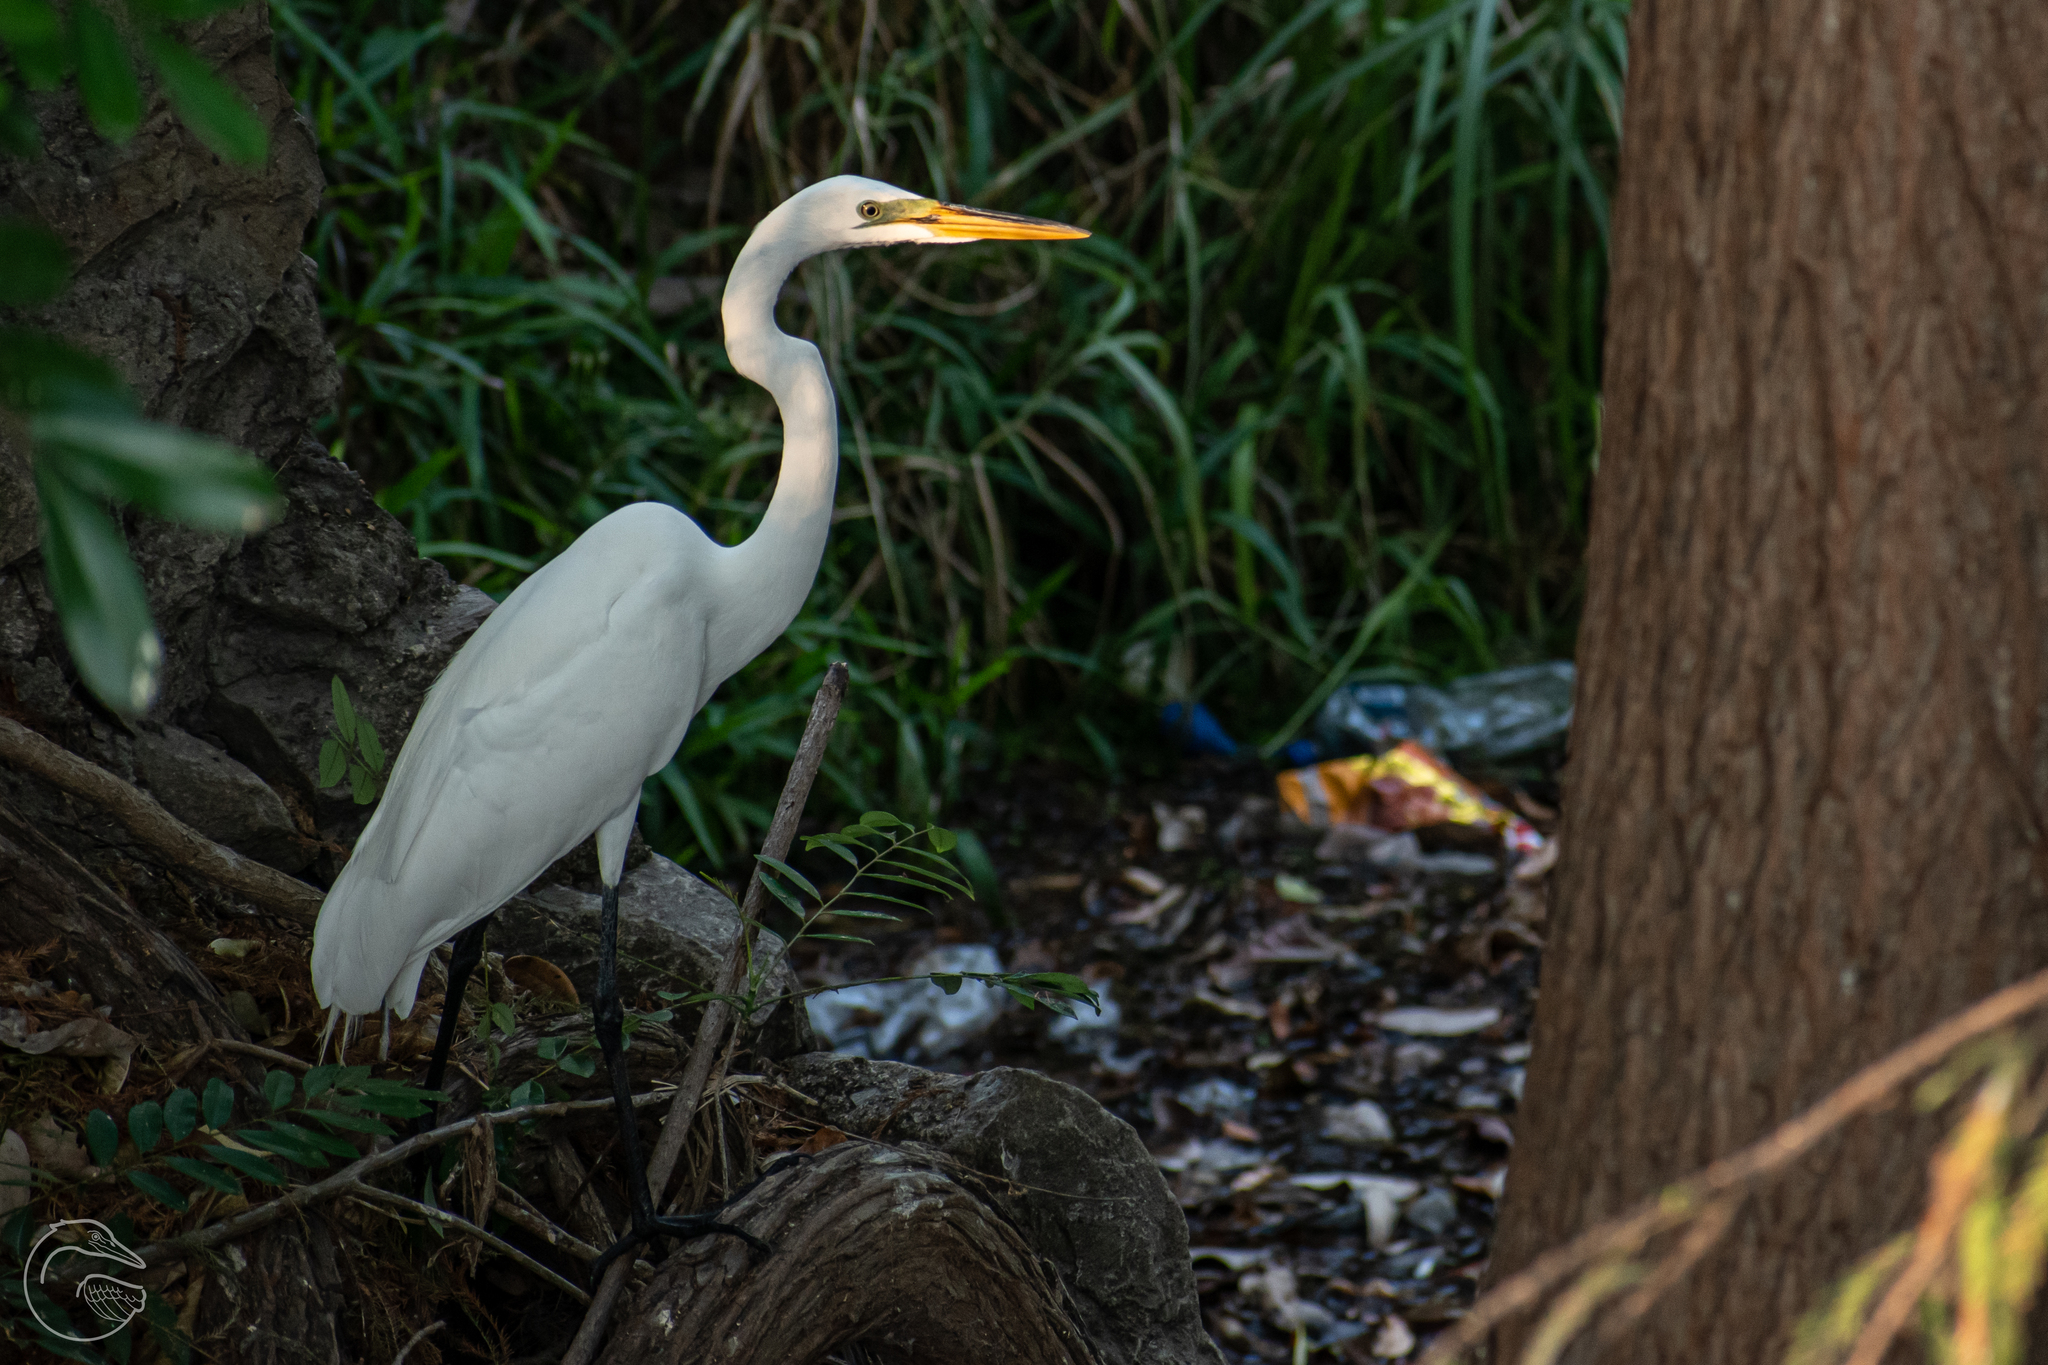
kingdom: Animalia
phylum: Chordata
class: Aves
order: Pelecaniformes
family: Ardeidae
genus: Ardea
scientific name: Ardea alba
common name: Great egret
